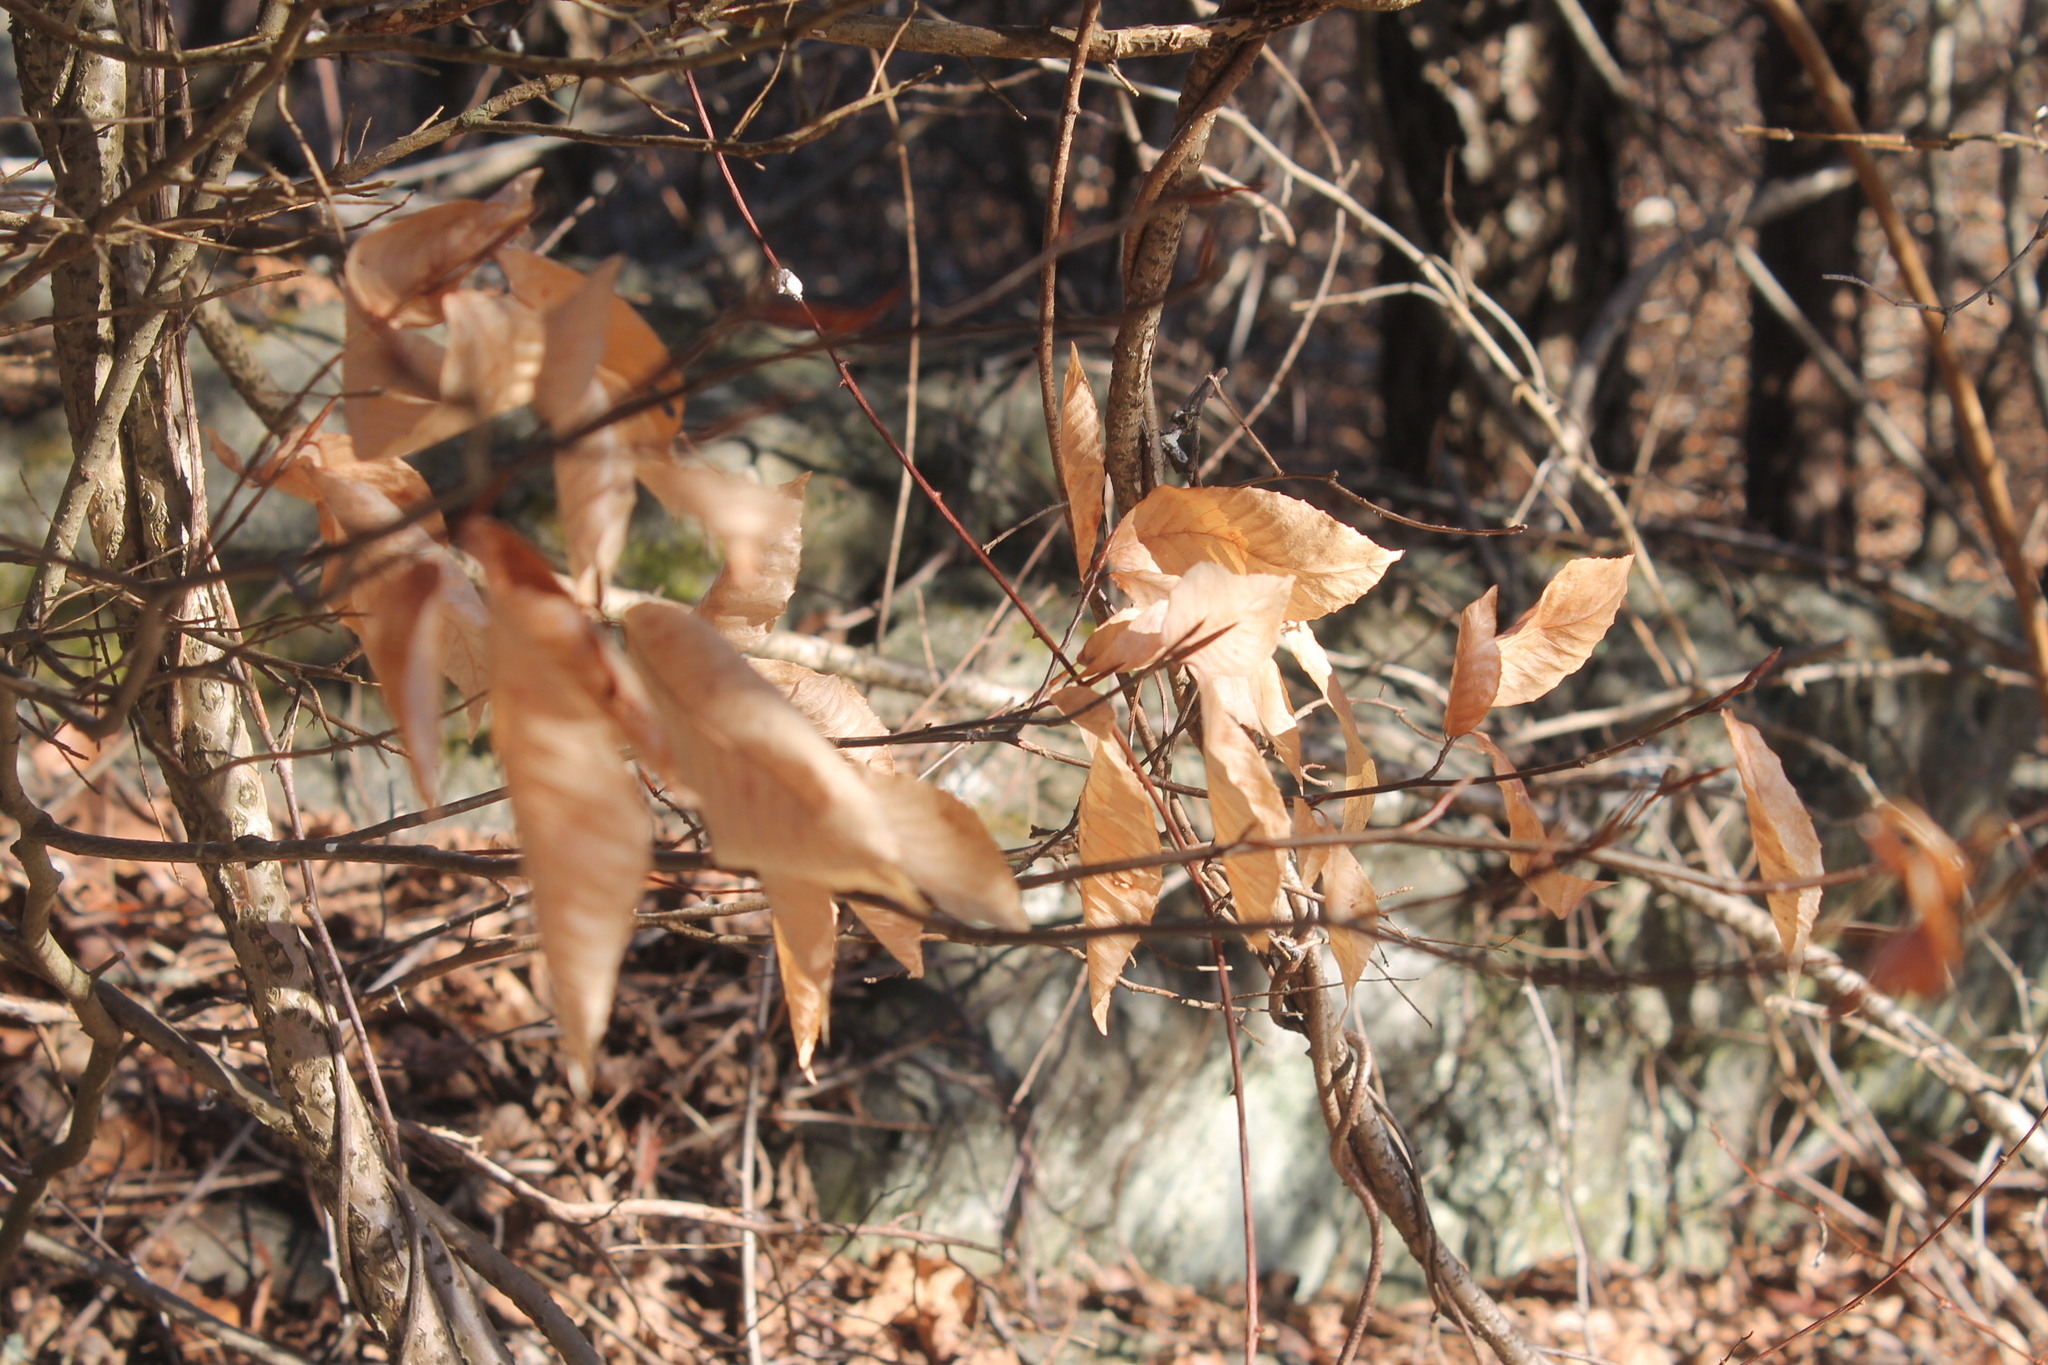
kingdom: Plantae
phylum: Tracheophyta
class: Magnoliopsida
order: Fagales
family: Fagaceae
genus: Fagus
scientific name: Fagus grandifolia
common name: American beech
